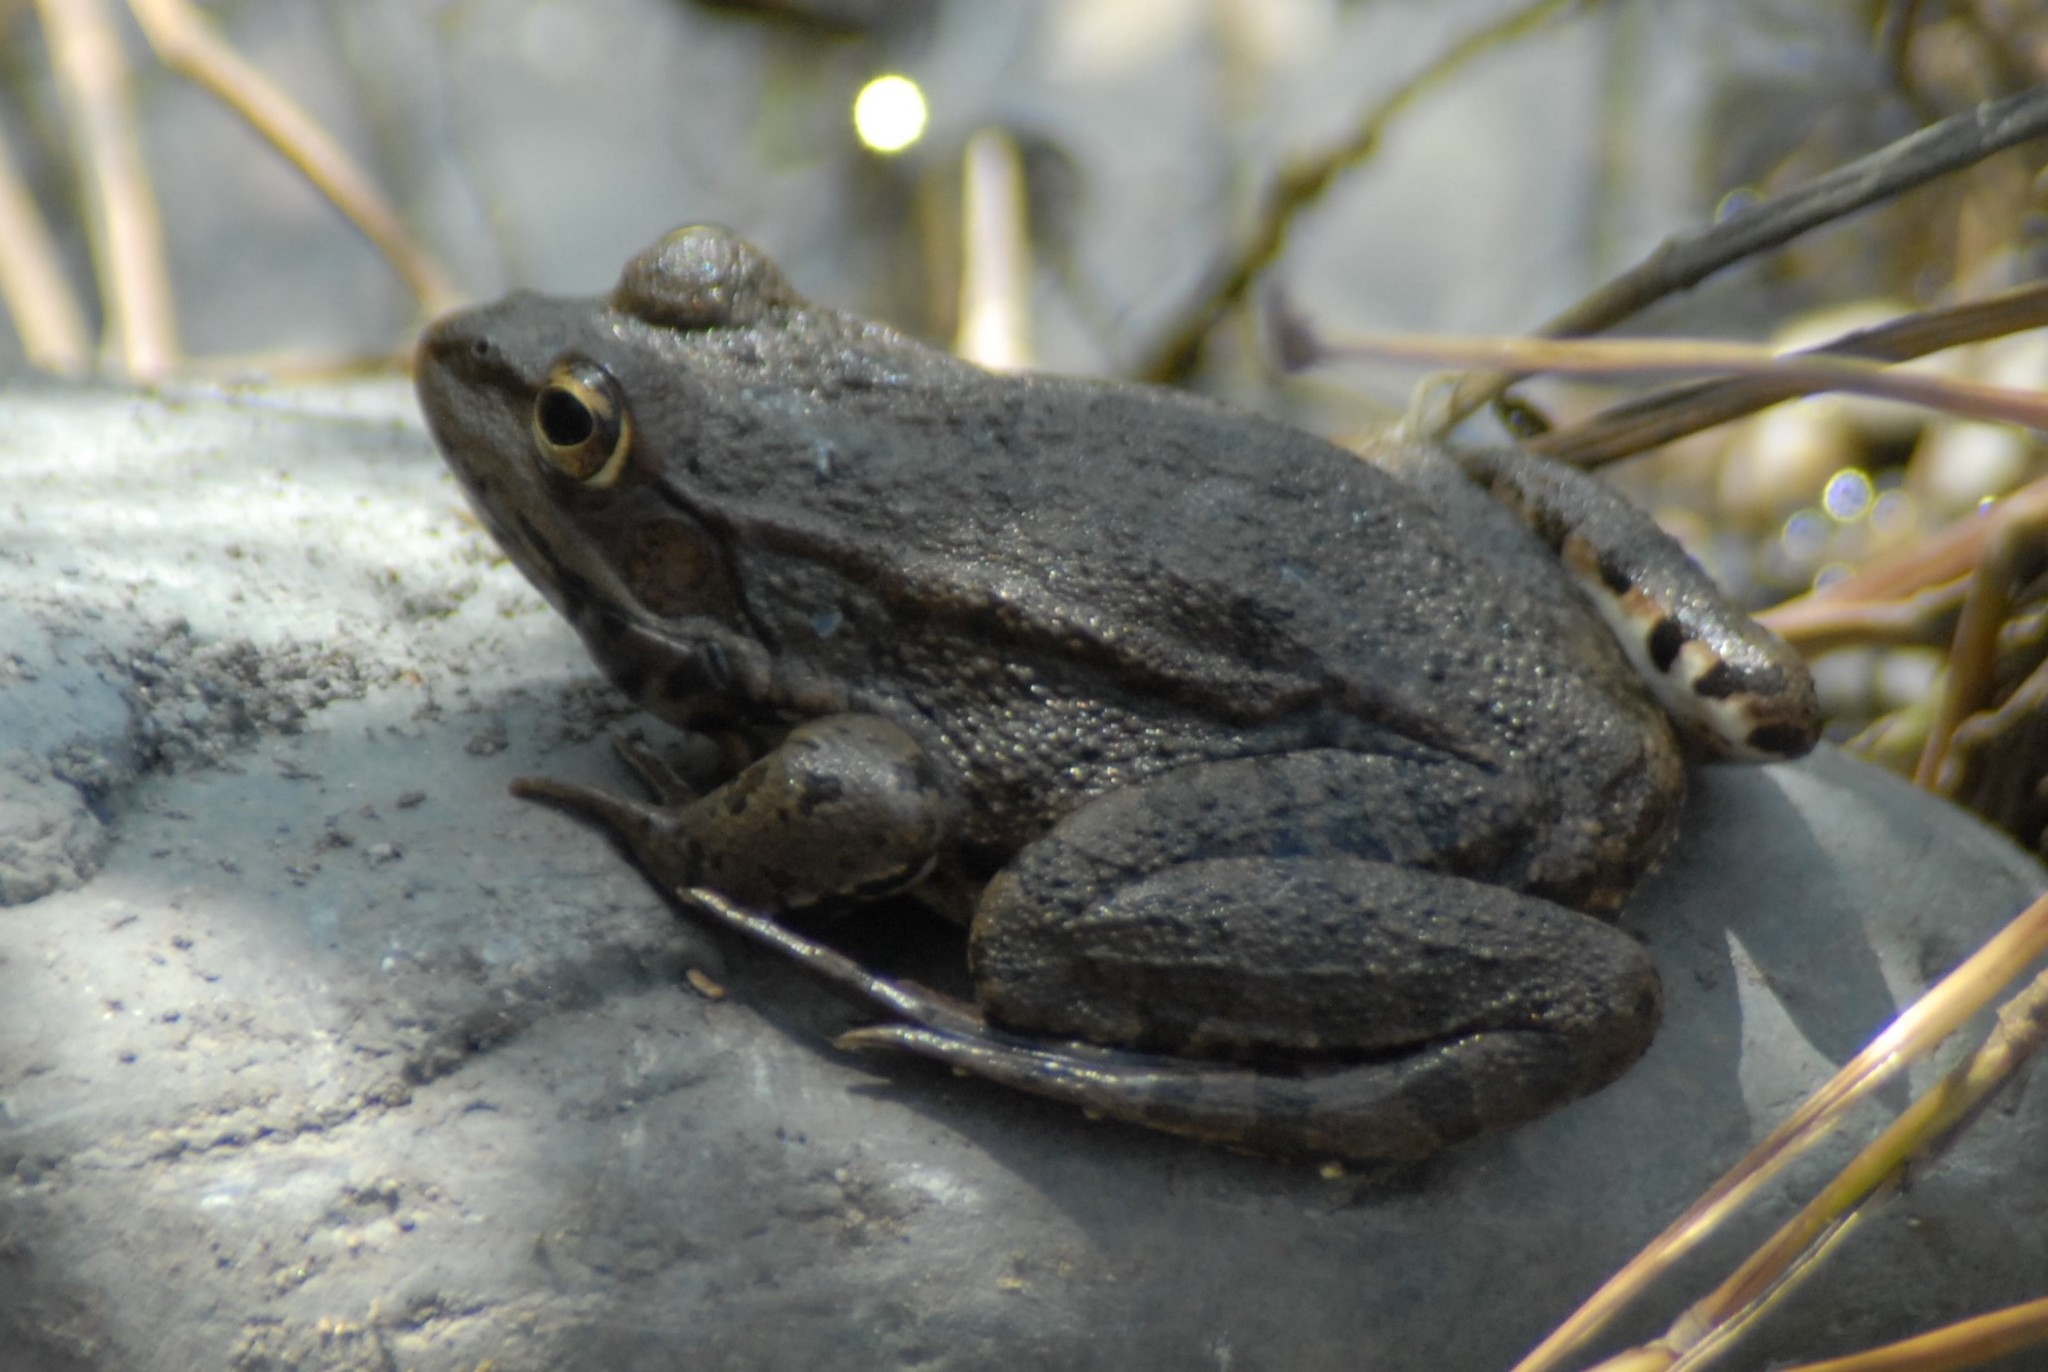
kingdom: Animalia
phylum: Chordata
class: Amphibia
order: Anura
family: Ranidae
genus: Pelophylax
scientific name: Pelophylax ridibundus
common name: Marsh frog
